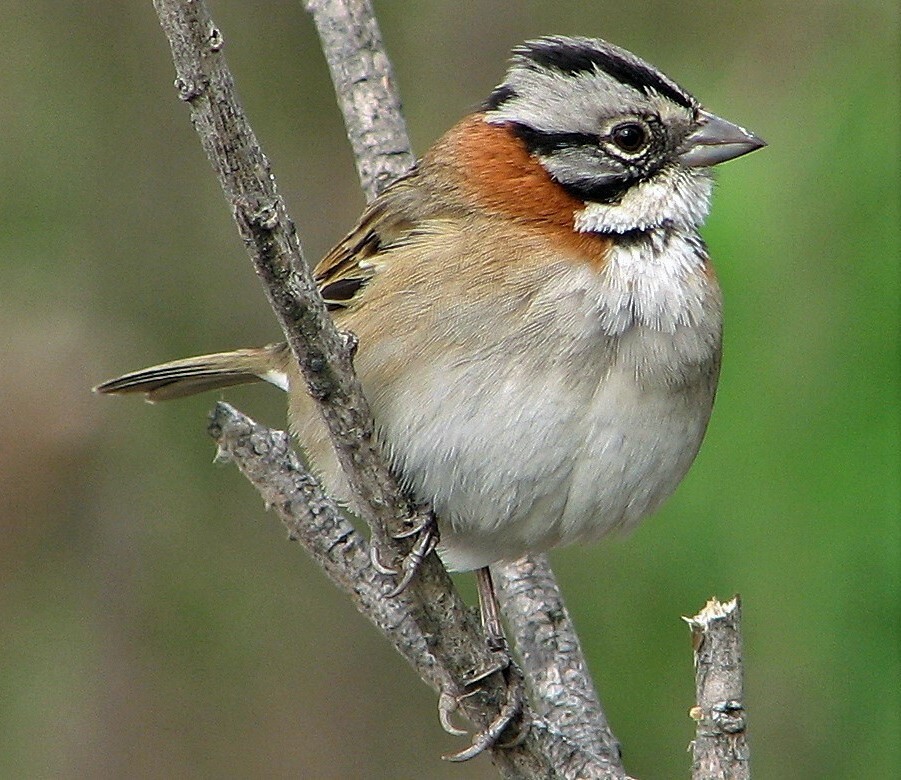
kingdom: Animalia
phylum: Chordata
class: Aves
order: Passeriformes
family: Passerellidae
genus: Zonotrichia
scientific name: Zonotrichia capensis
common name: Rufous-collared sparrow
